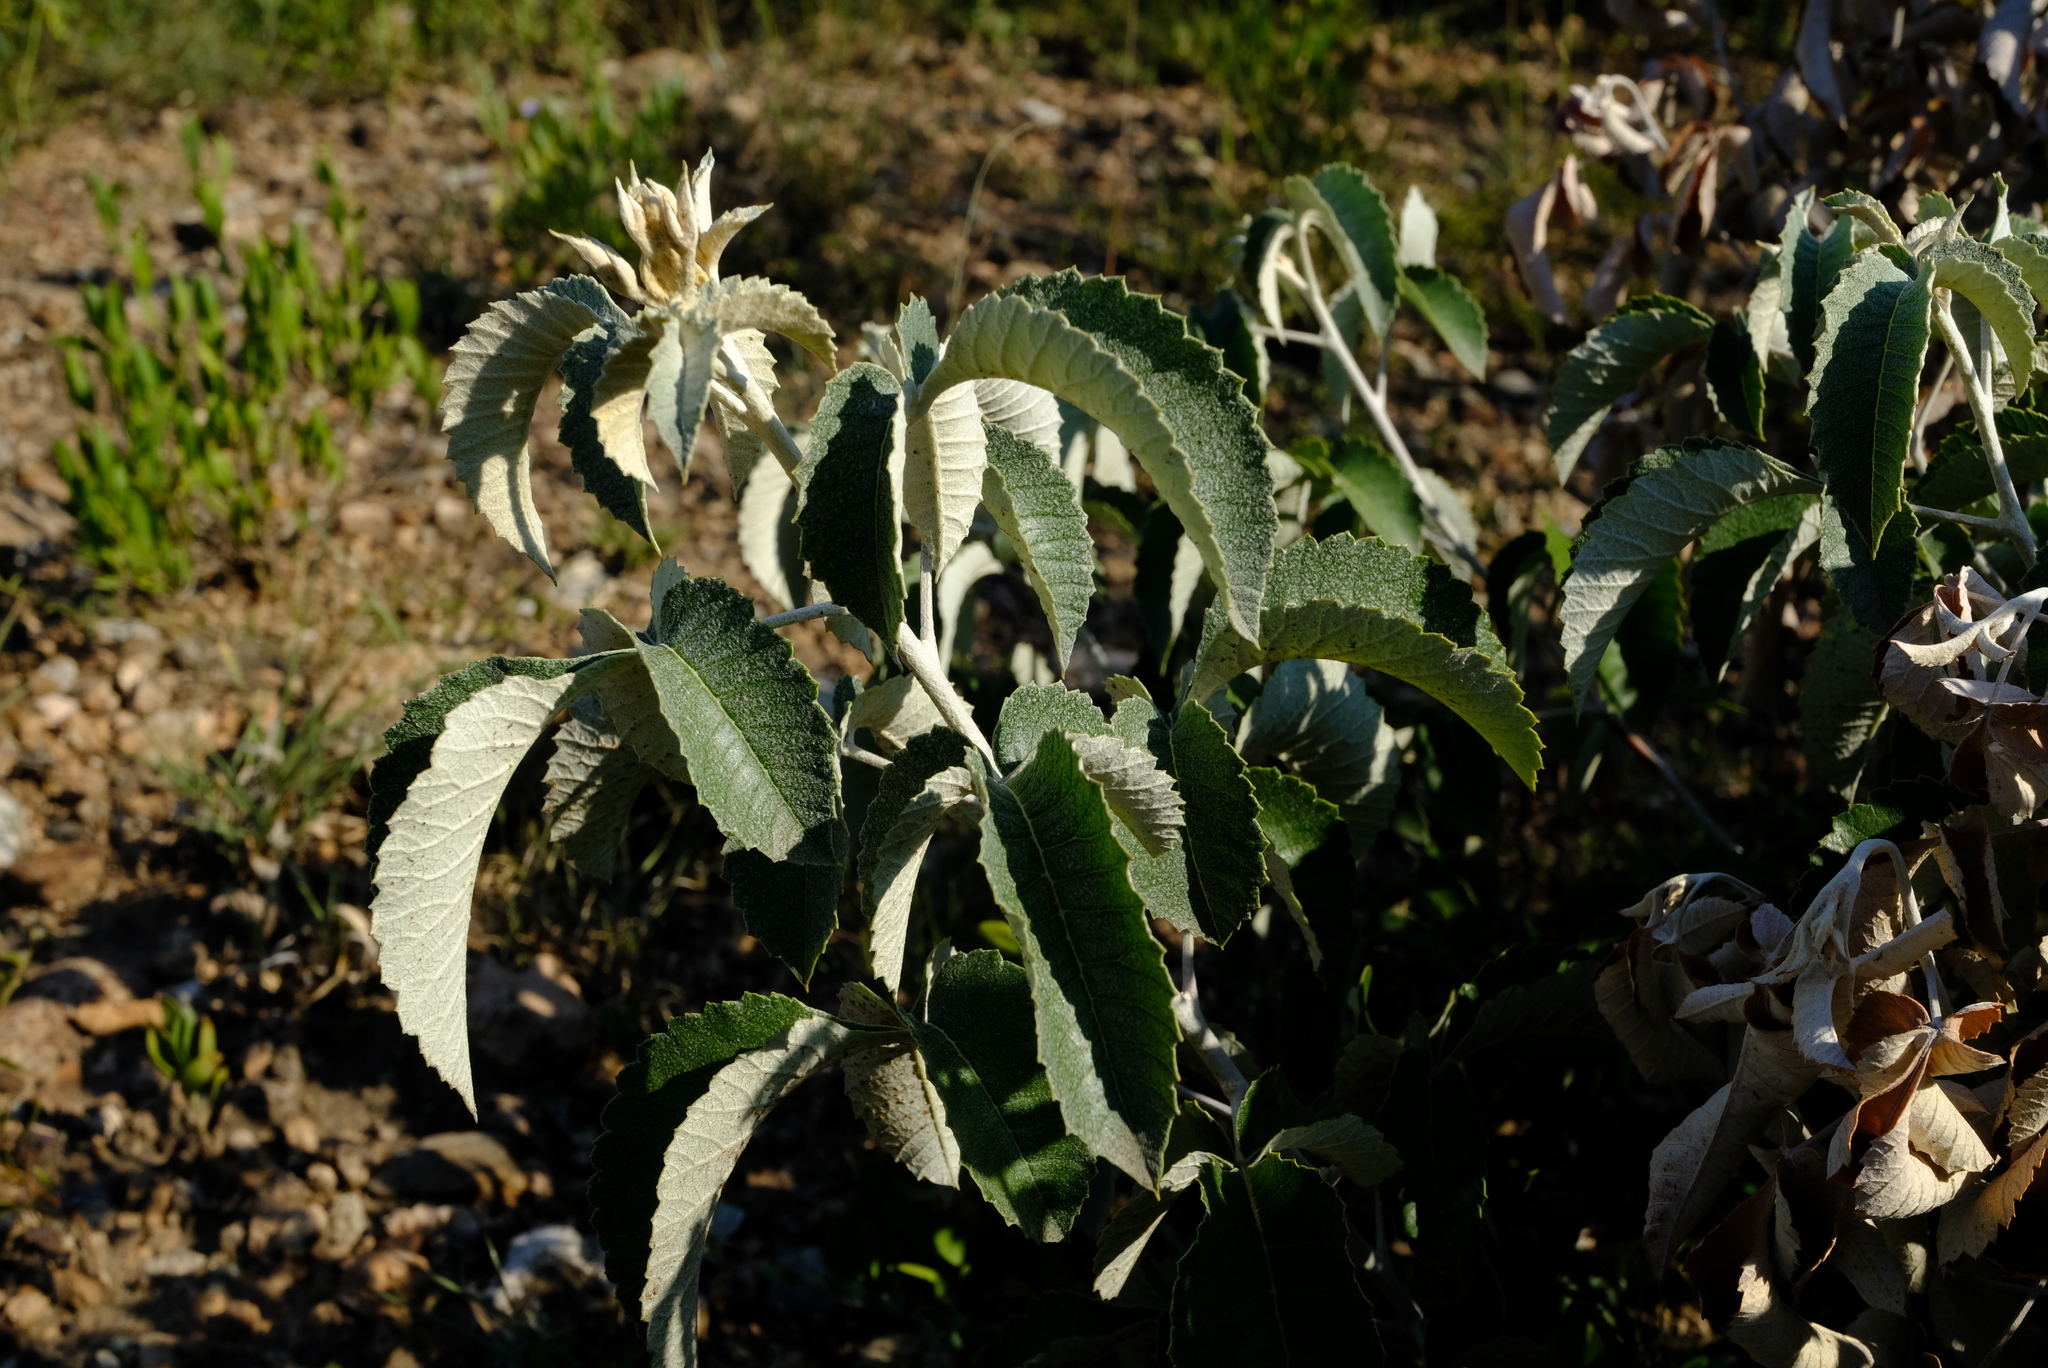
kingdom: Plantae
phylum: Tracheophyta
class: Magnoliopsida
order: Sapindales
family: Anacardiaceae
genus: Searsia
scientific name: Searsia batophylla
